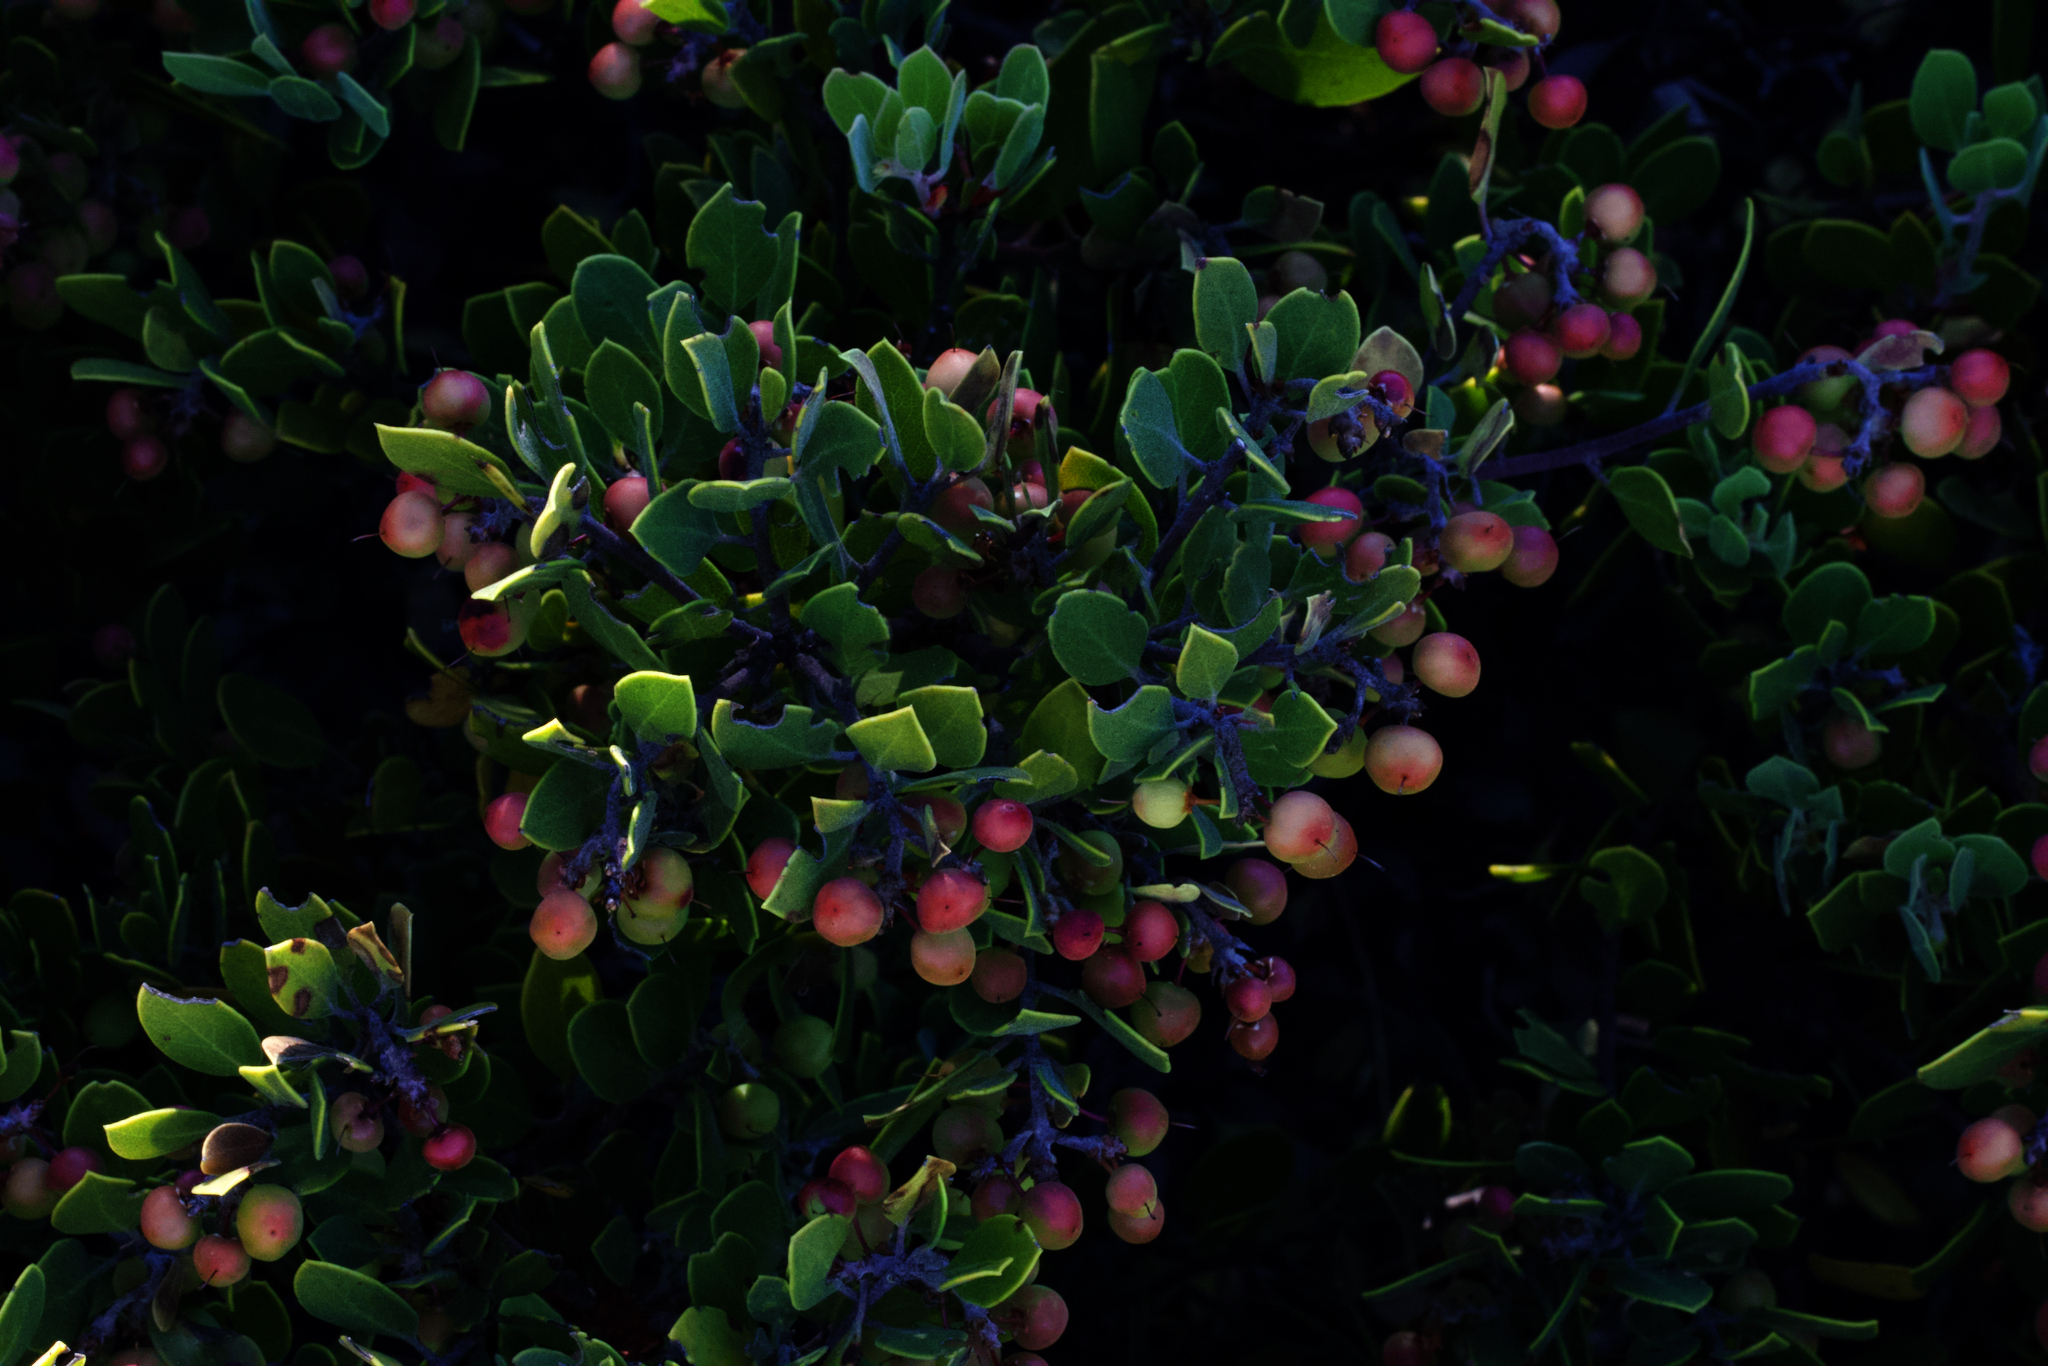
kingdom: Plantae
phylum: Tracheophyta
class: Magnoliopsida
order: Ericales
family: Ericaceae
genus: Arctostaphylos
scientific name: Arctostaphylos montana
